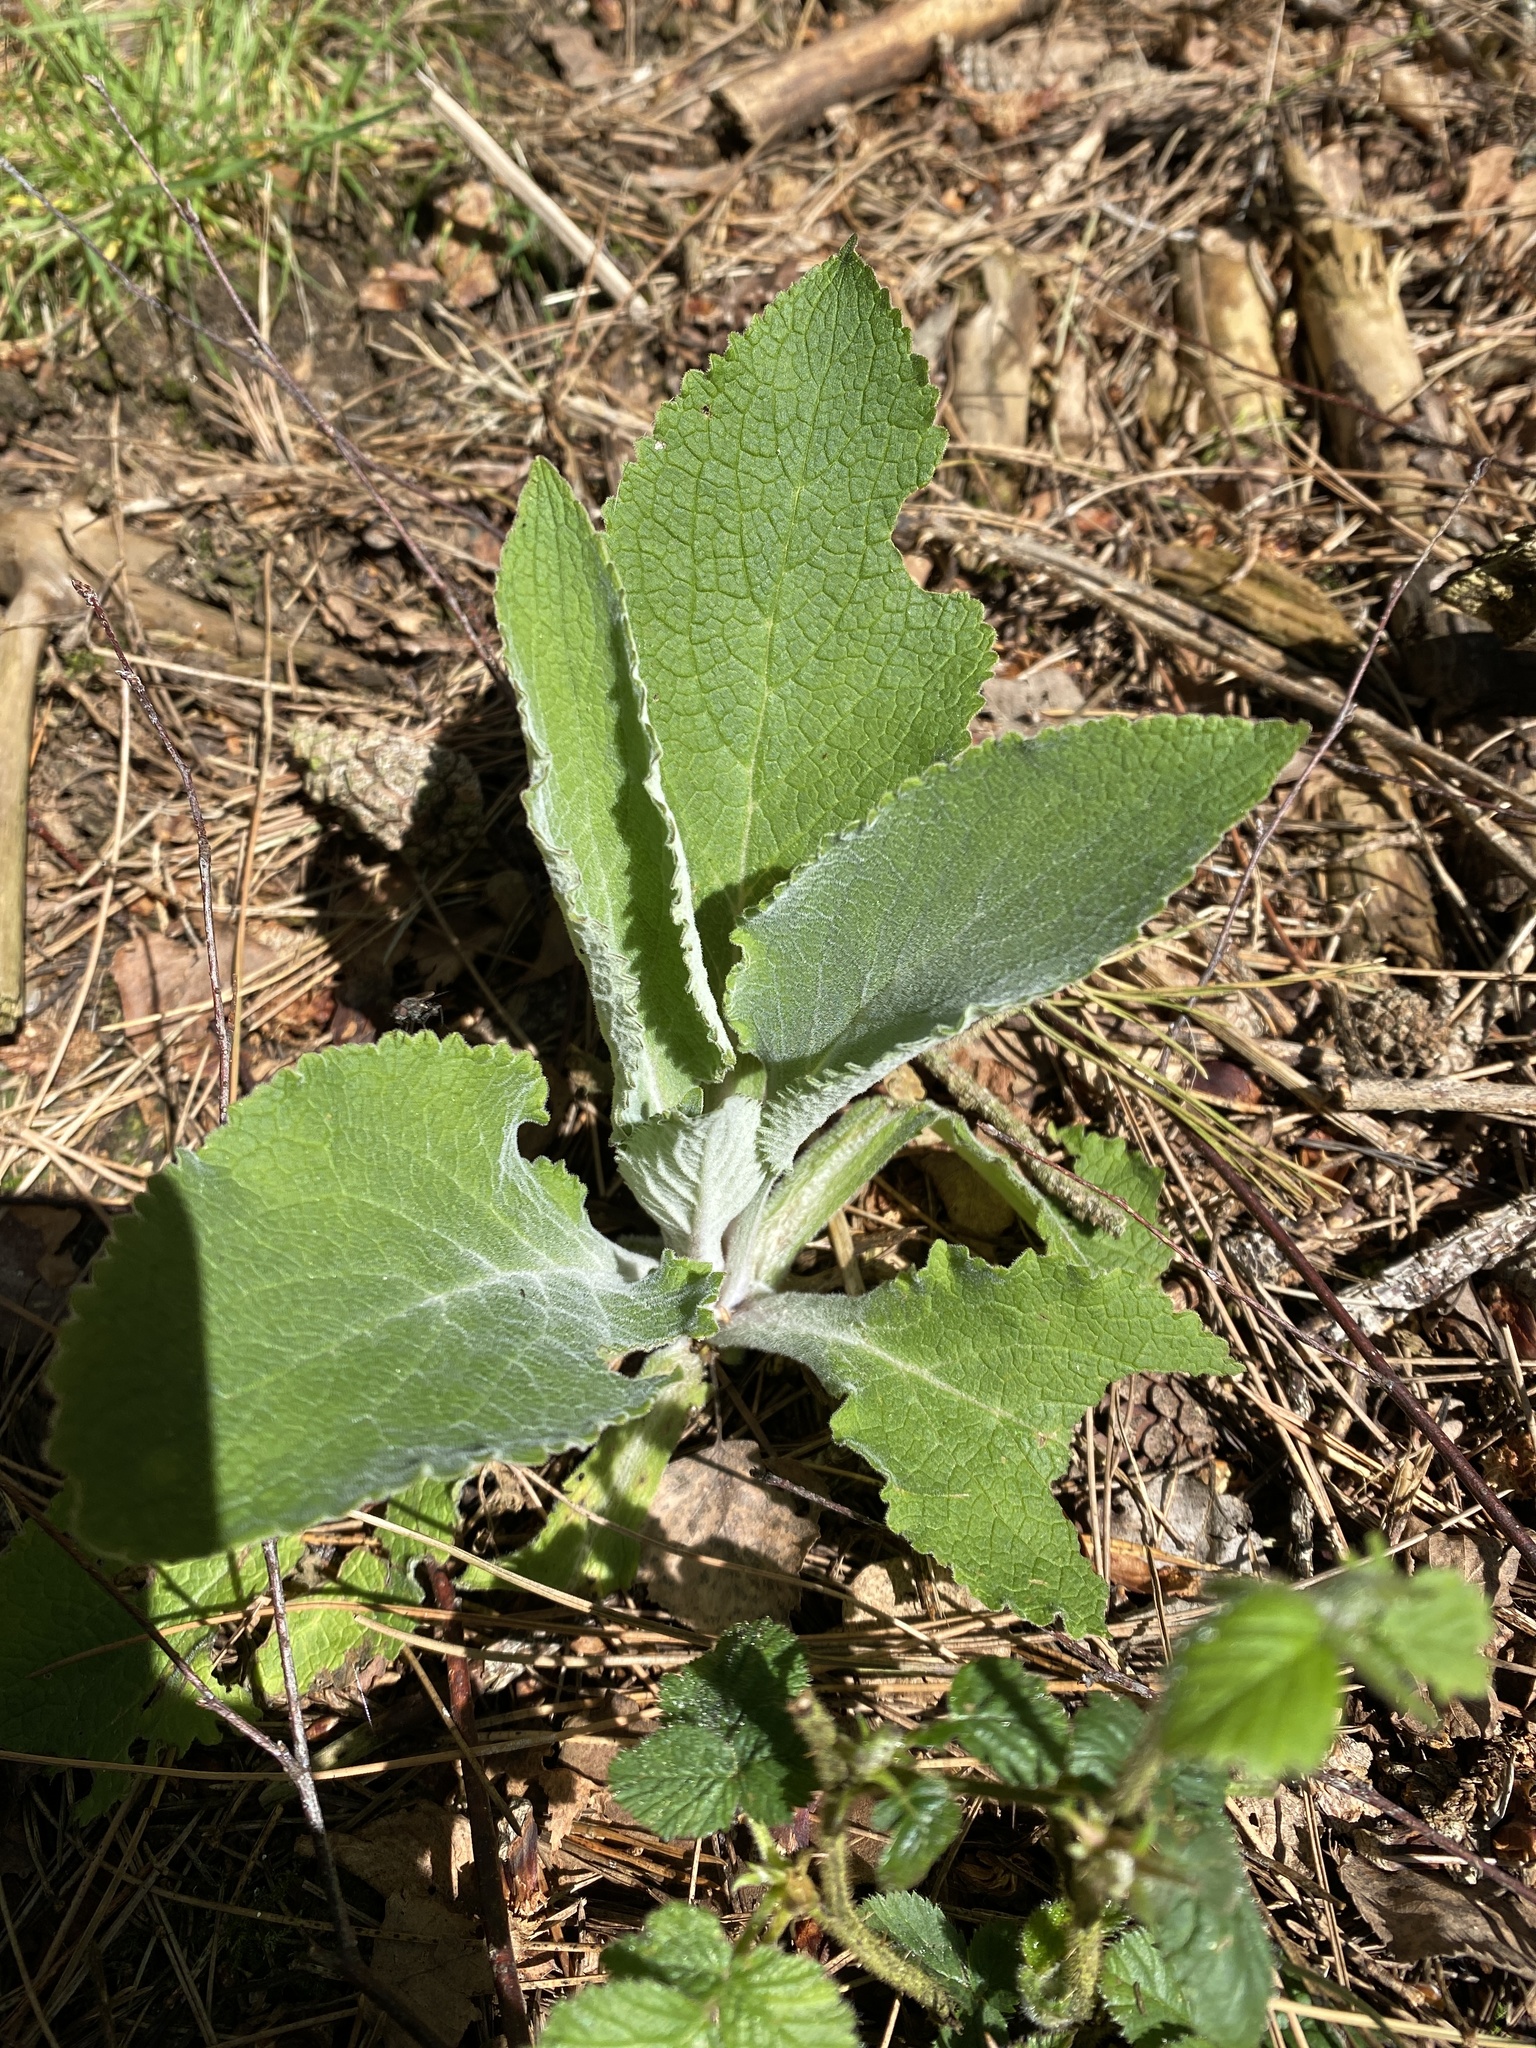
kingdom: Plantae
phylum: Tracheophyta
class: Magnoliopsida
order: Lamiales
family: Plantaginaceae
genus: Digitalis
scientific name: Digitalis purpurea
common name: Foxglove
